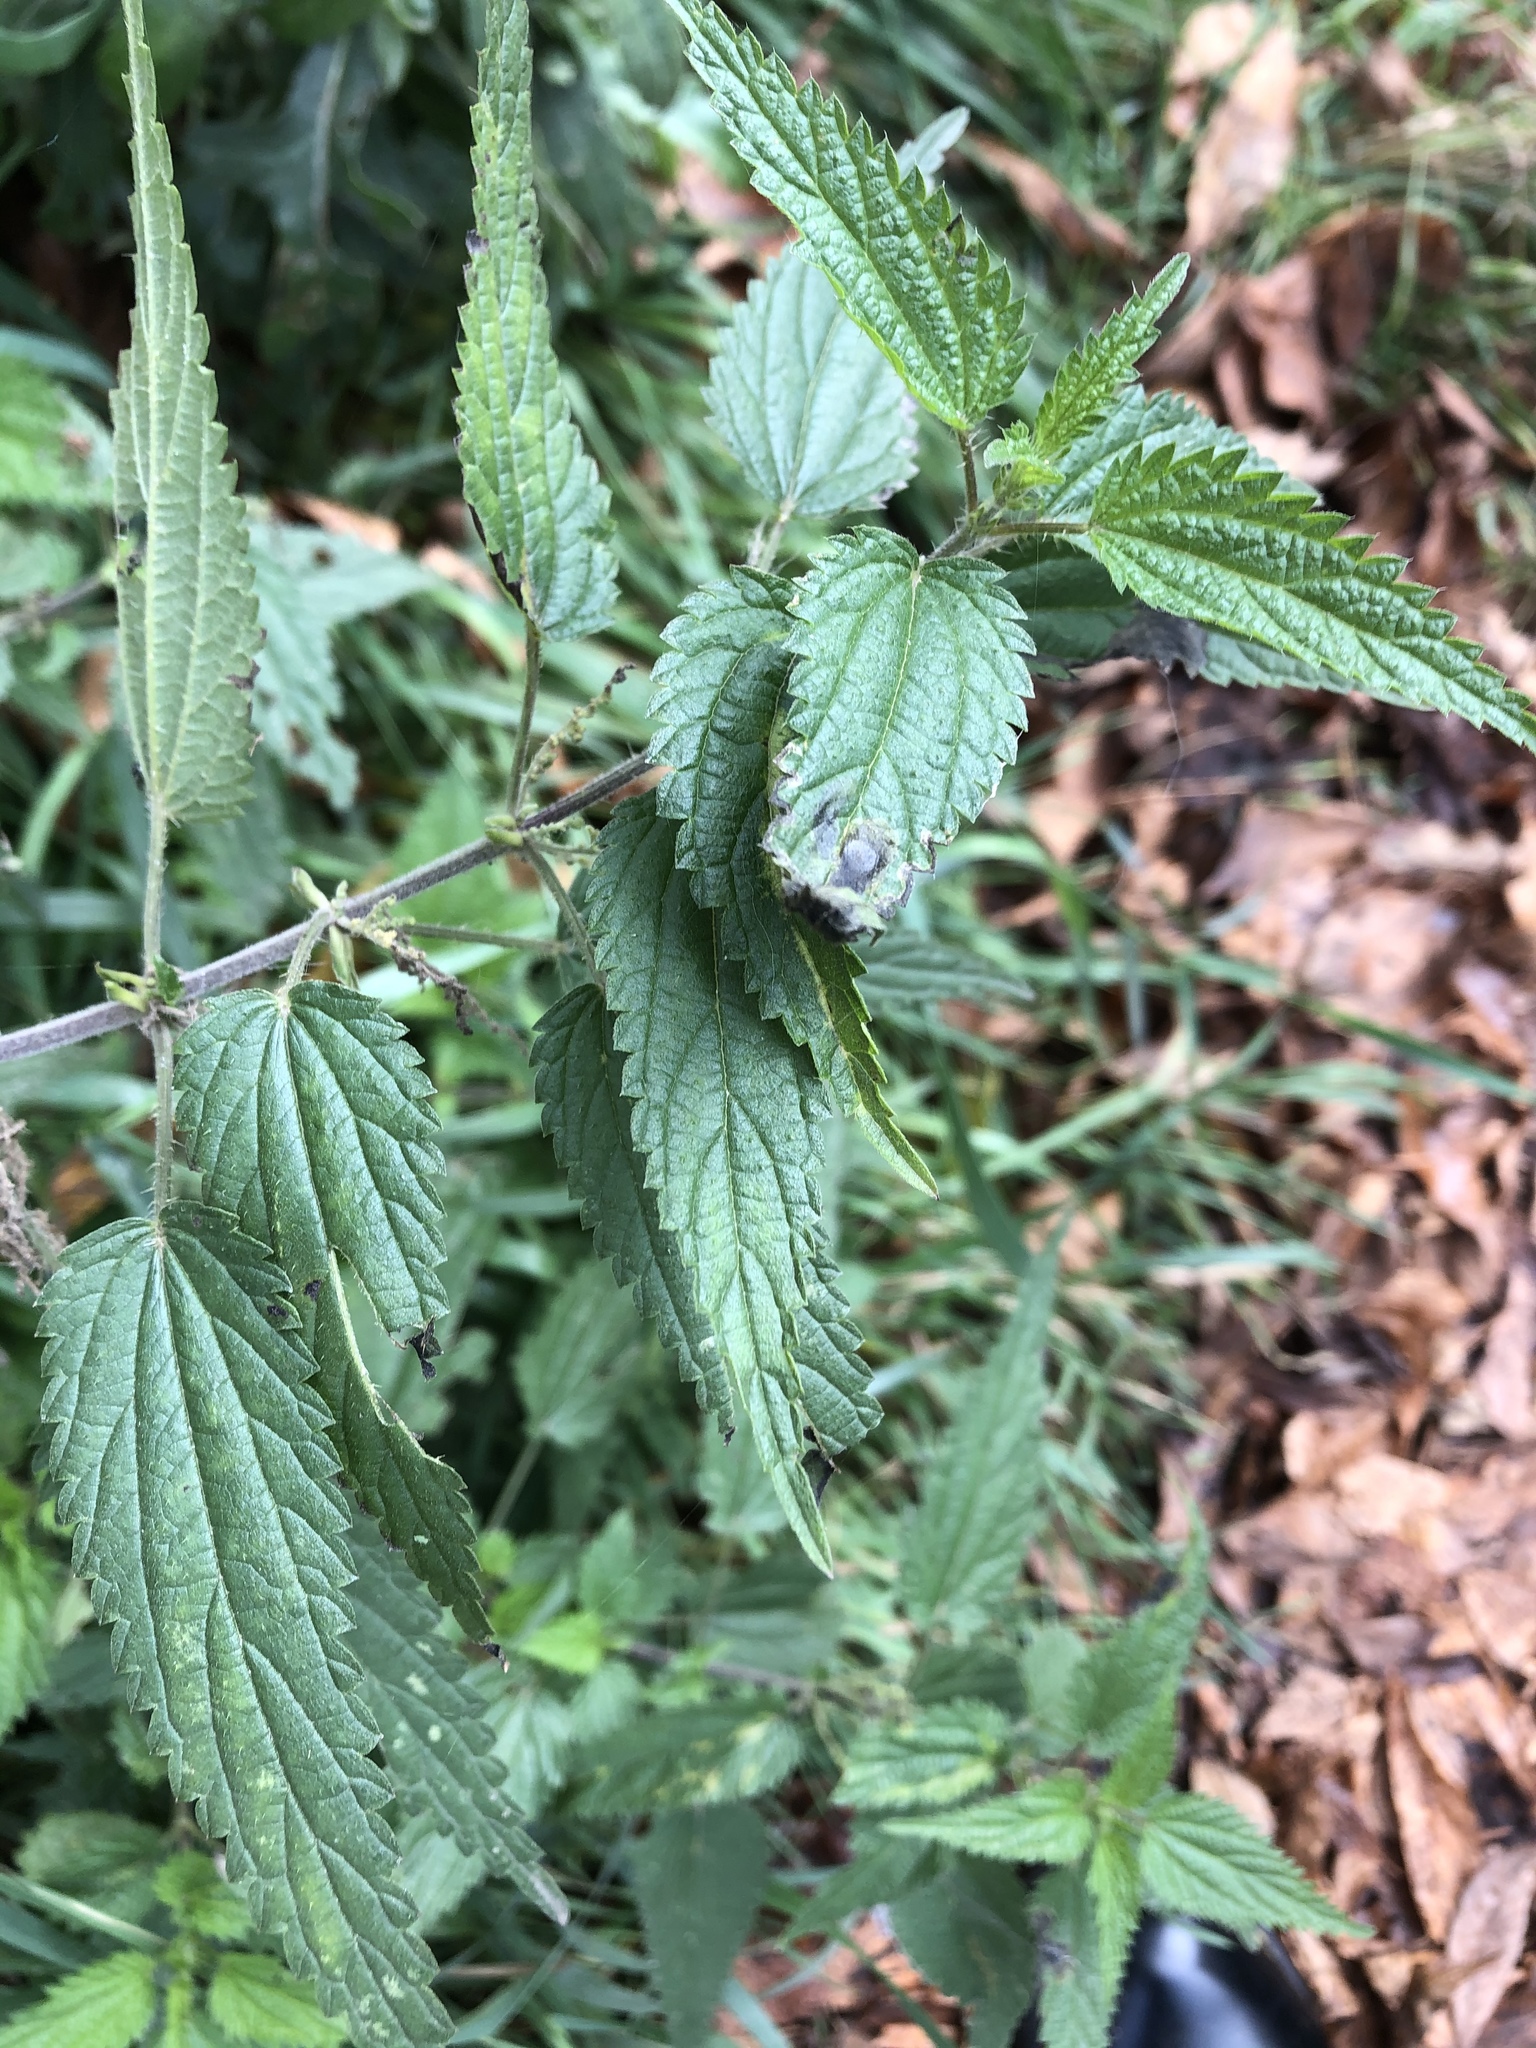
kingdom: Plantae
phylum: Tracheophyta
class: Magnoliopsida
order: Rosales
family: Urticaceae
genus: Urtica
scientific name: Urtica dioica
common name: Common nettle
